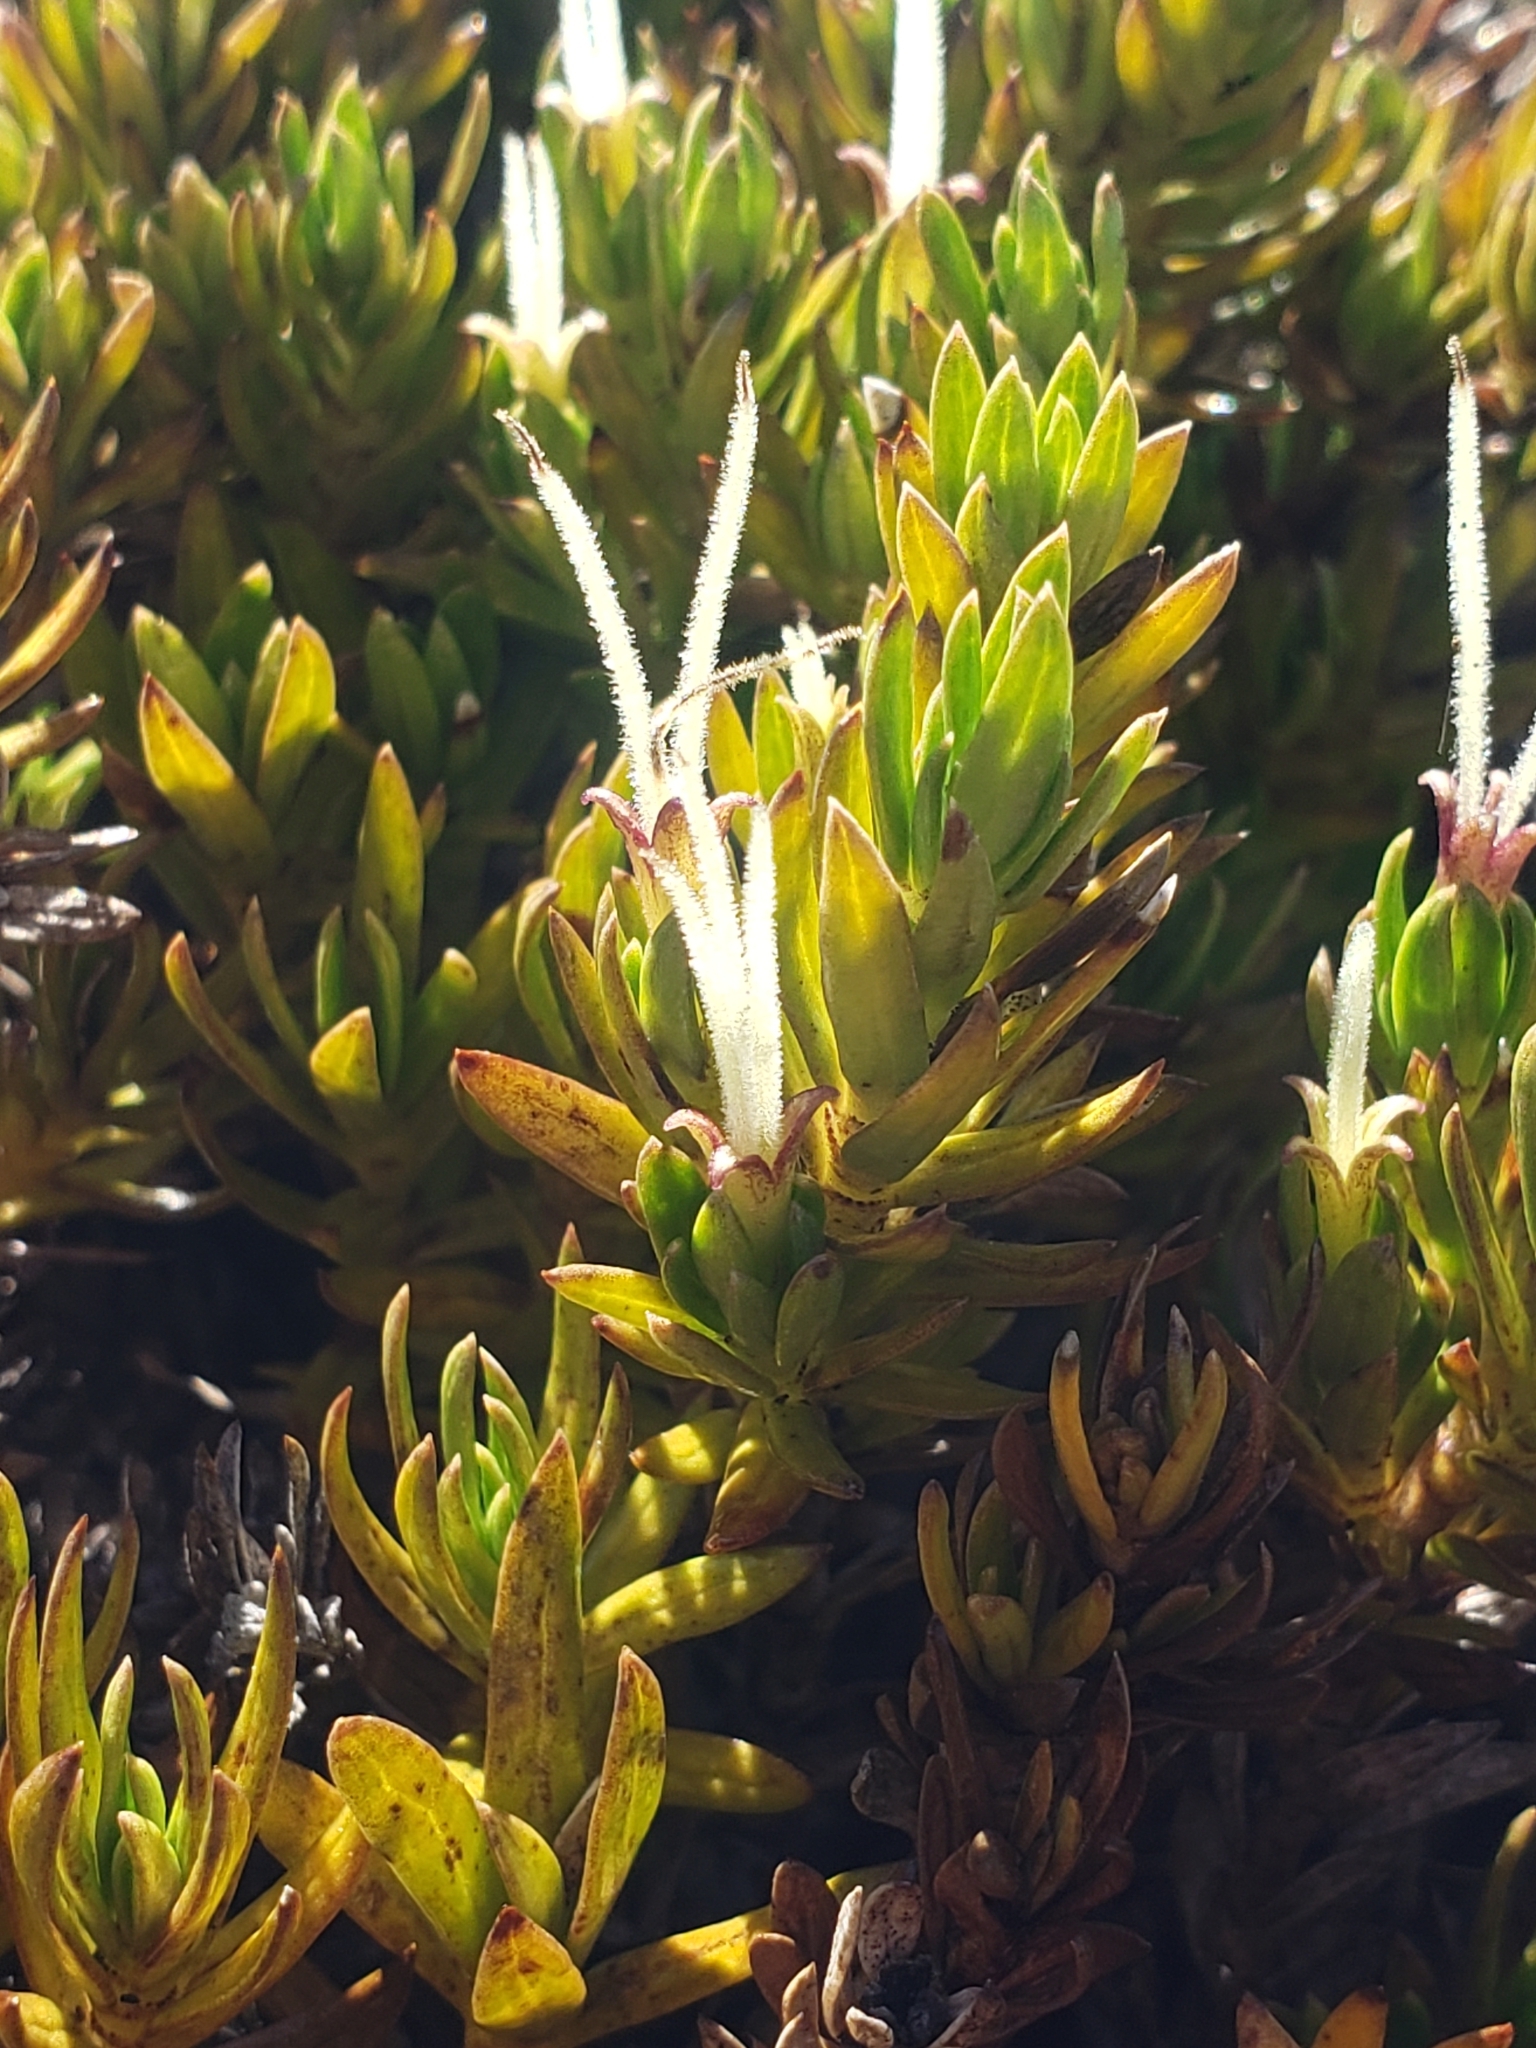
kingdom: Plantae
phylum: Tracheophyta
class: Magnoliopsida
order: Gentianales
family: Rubiaceae
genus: Coprosma
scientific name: Coprosma ernodeoides
